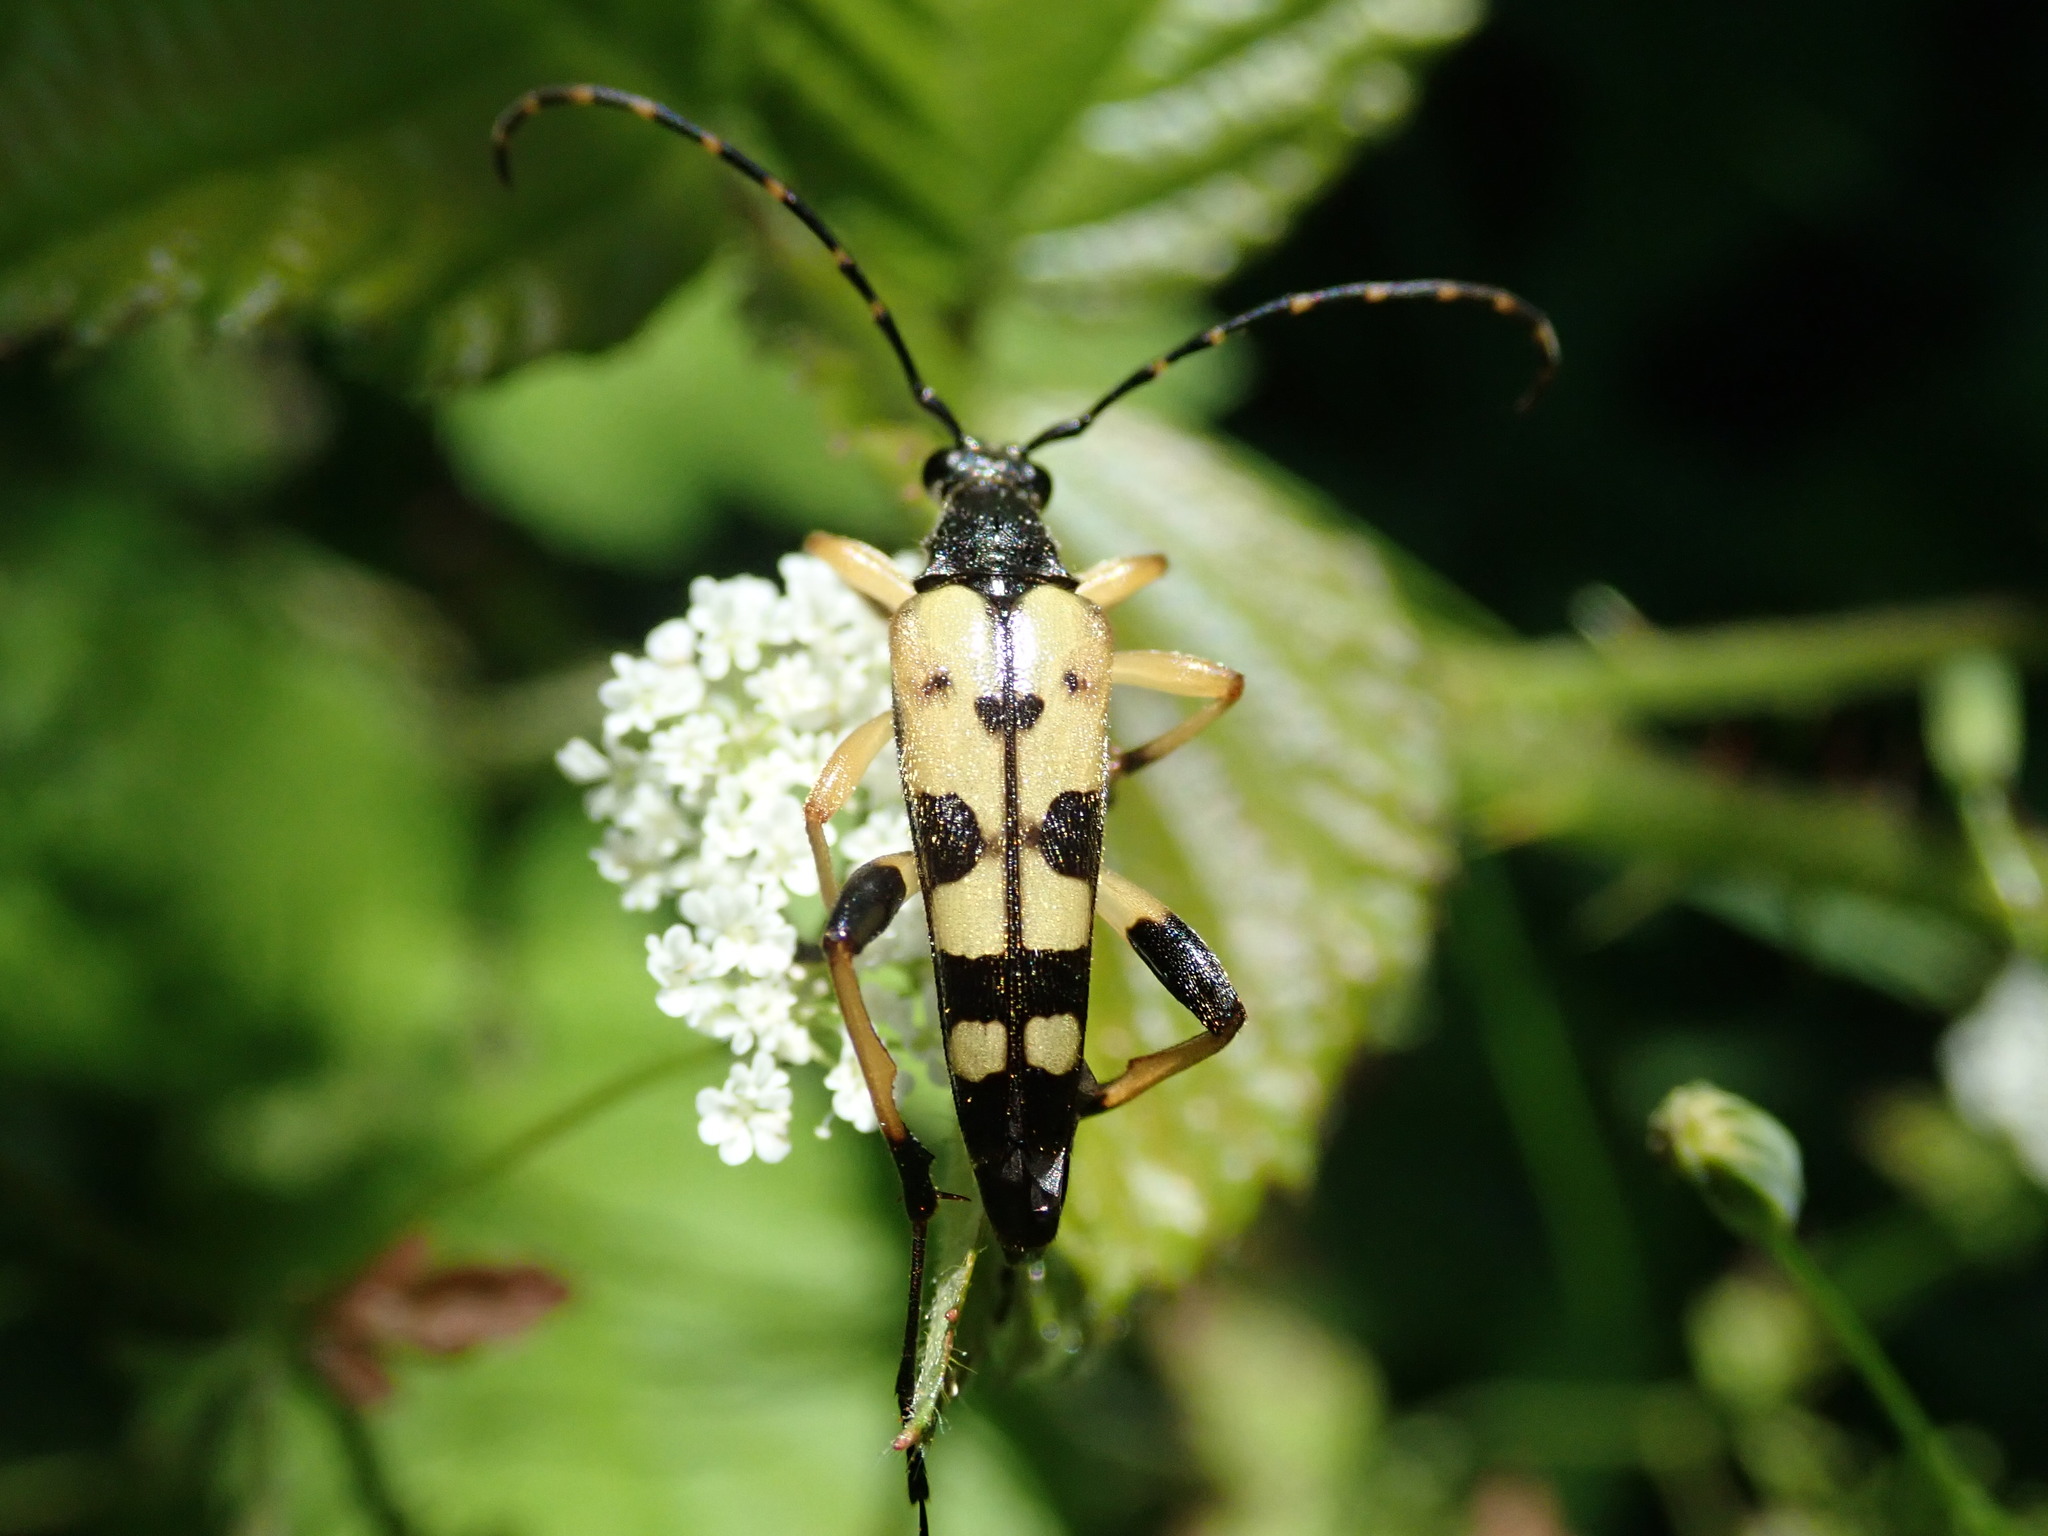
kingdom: Animalia
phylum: Arthropoda
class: Insecta
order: Coleoptera
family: Cerambycidae
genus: Rutpela
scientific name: Rutpela maculata
